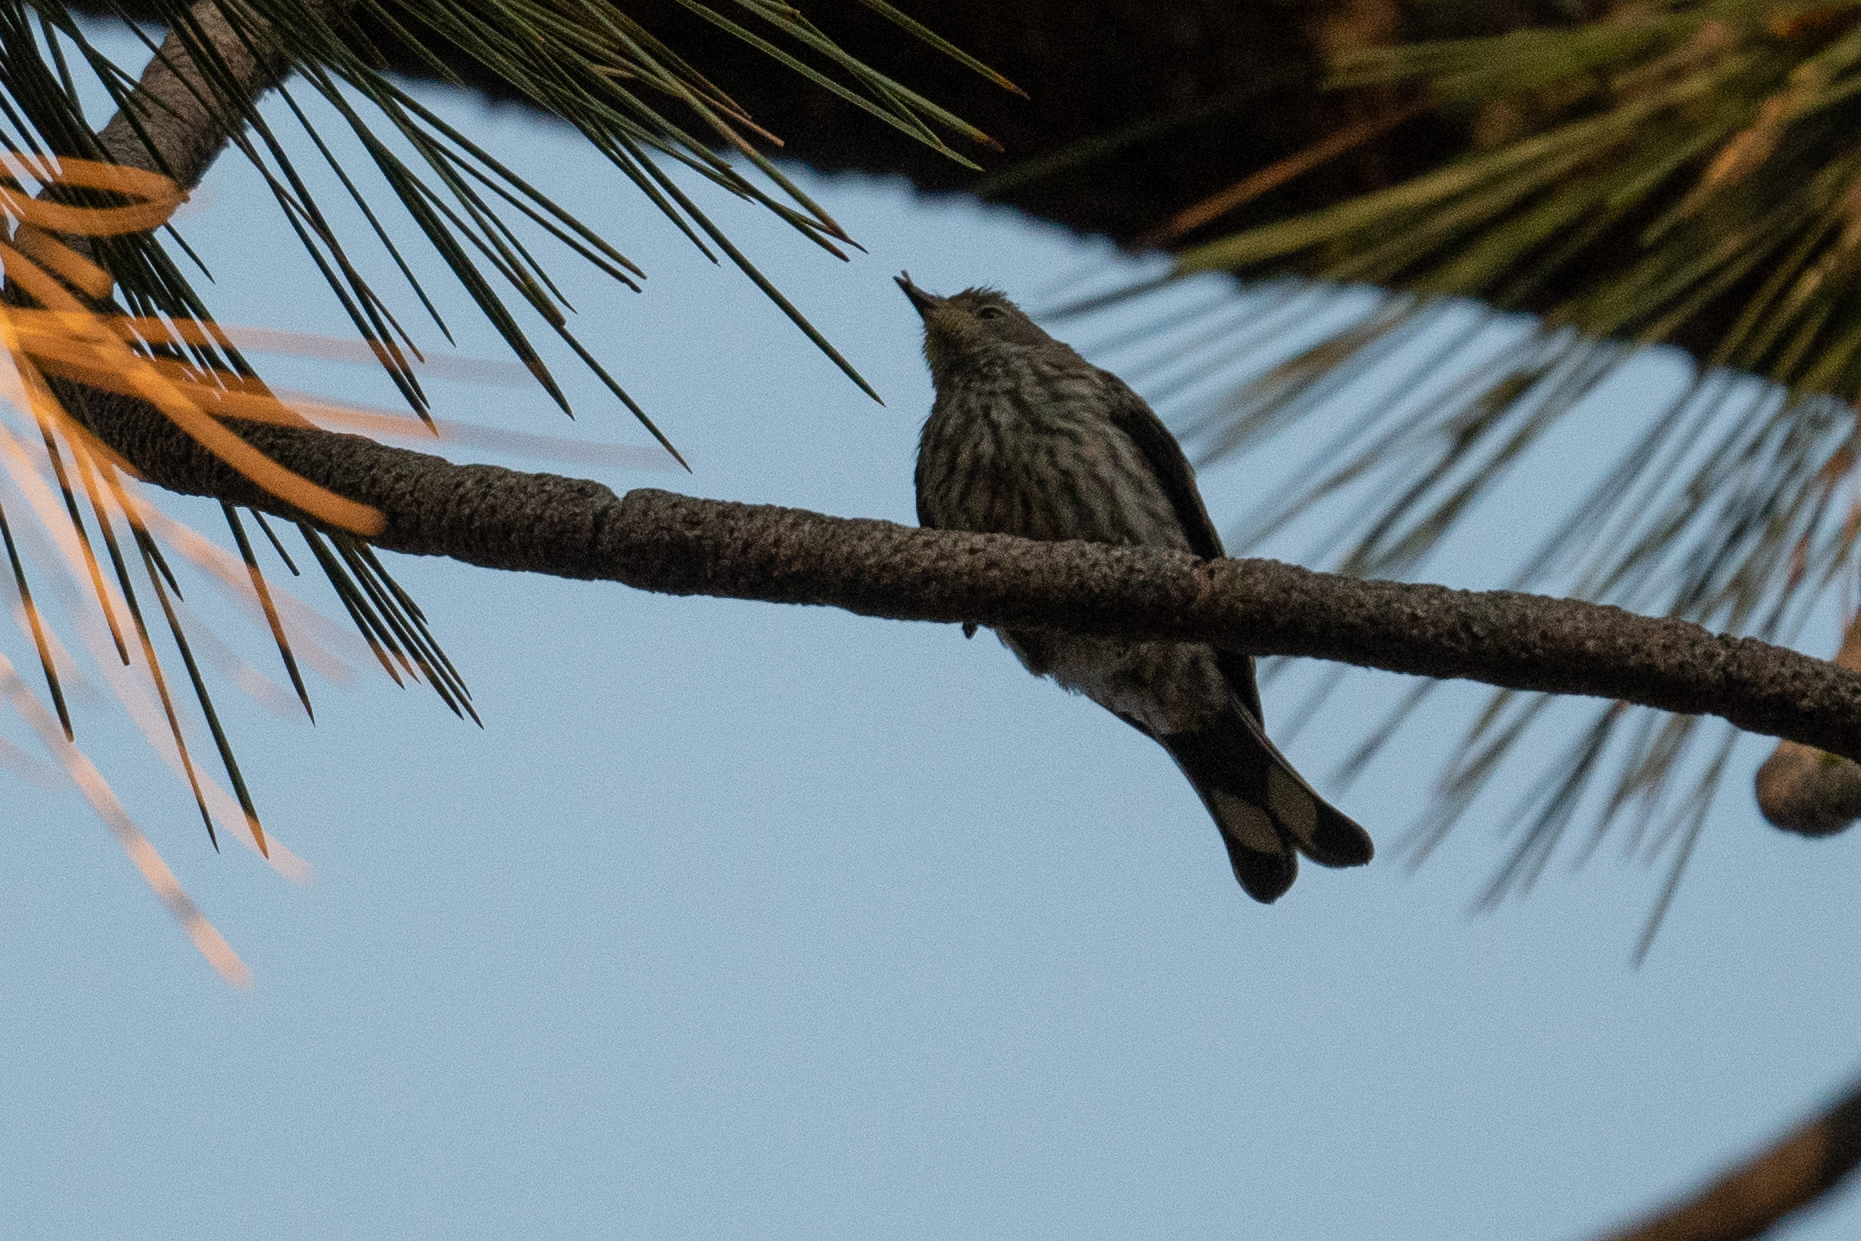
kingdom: Animalia
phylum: Chordata
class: Aves
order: Passeriformes
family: Parulidae
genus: Setophaga
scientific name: Setophaga auduboni
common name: Audubon's warbler
